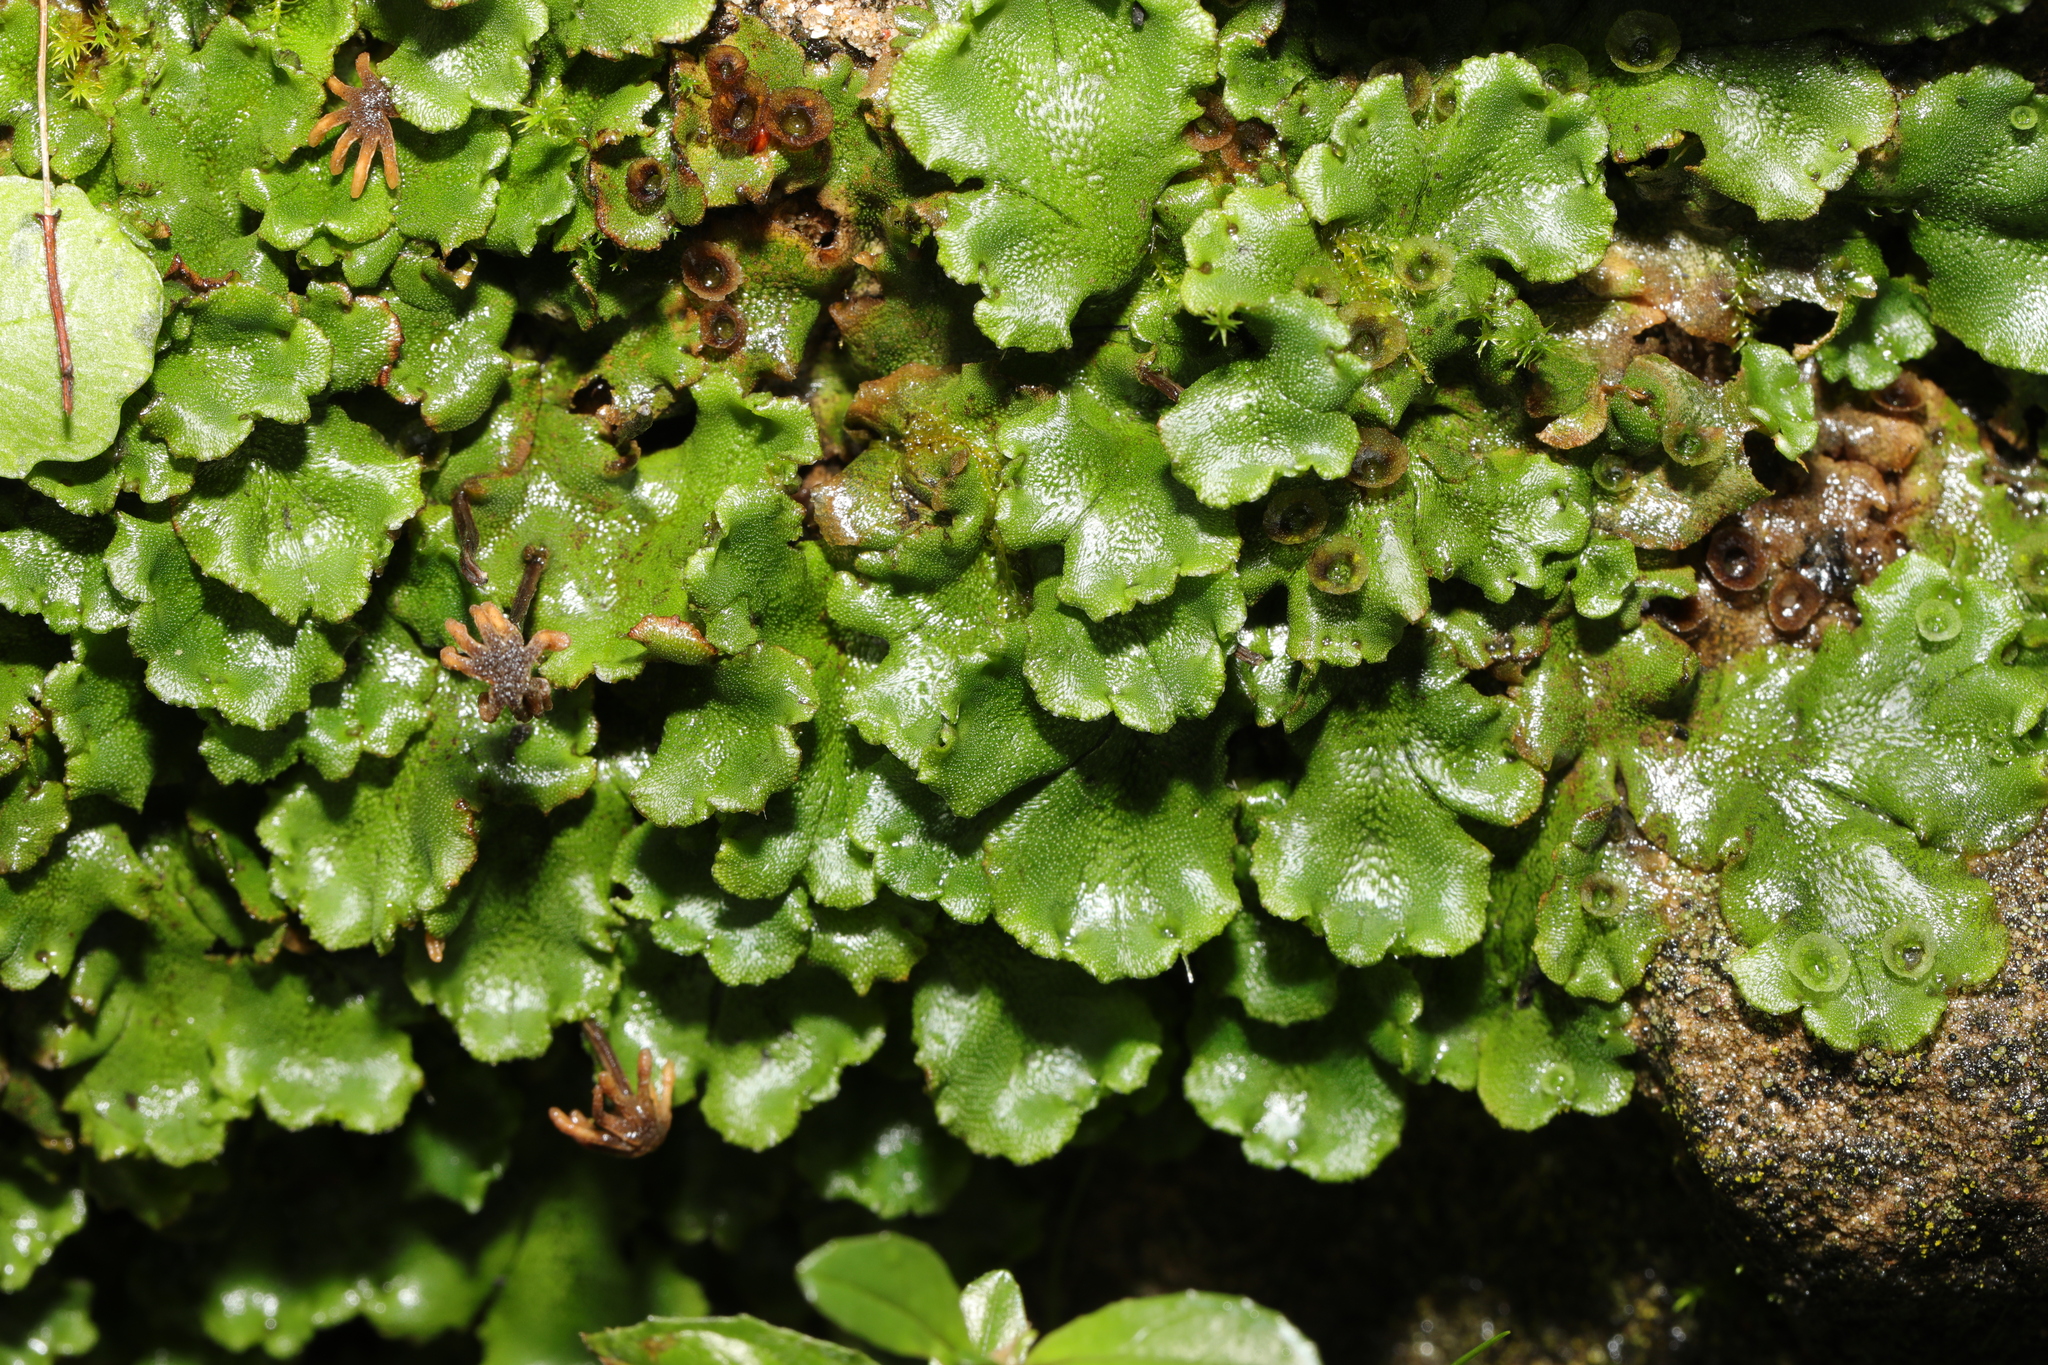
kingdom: Plantae
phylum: Marchantiophyta
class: Marchantiopsida
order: Marchantiales
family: Marchantiaceae
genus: Marchantia
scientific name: Marchantia polymorpha
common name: Common liverwort
